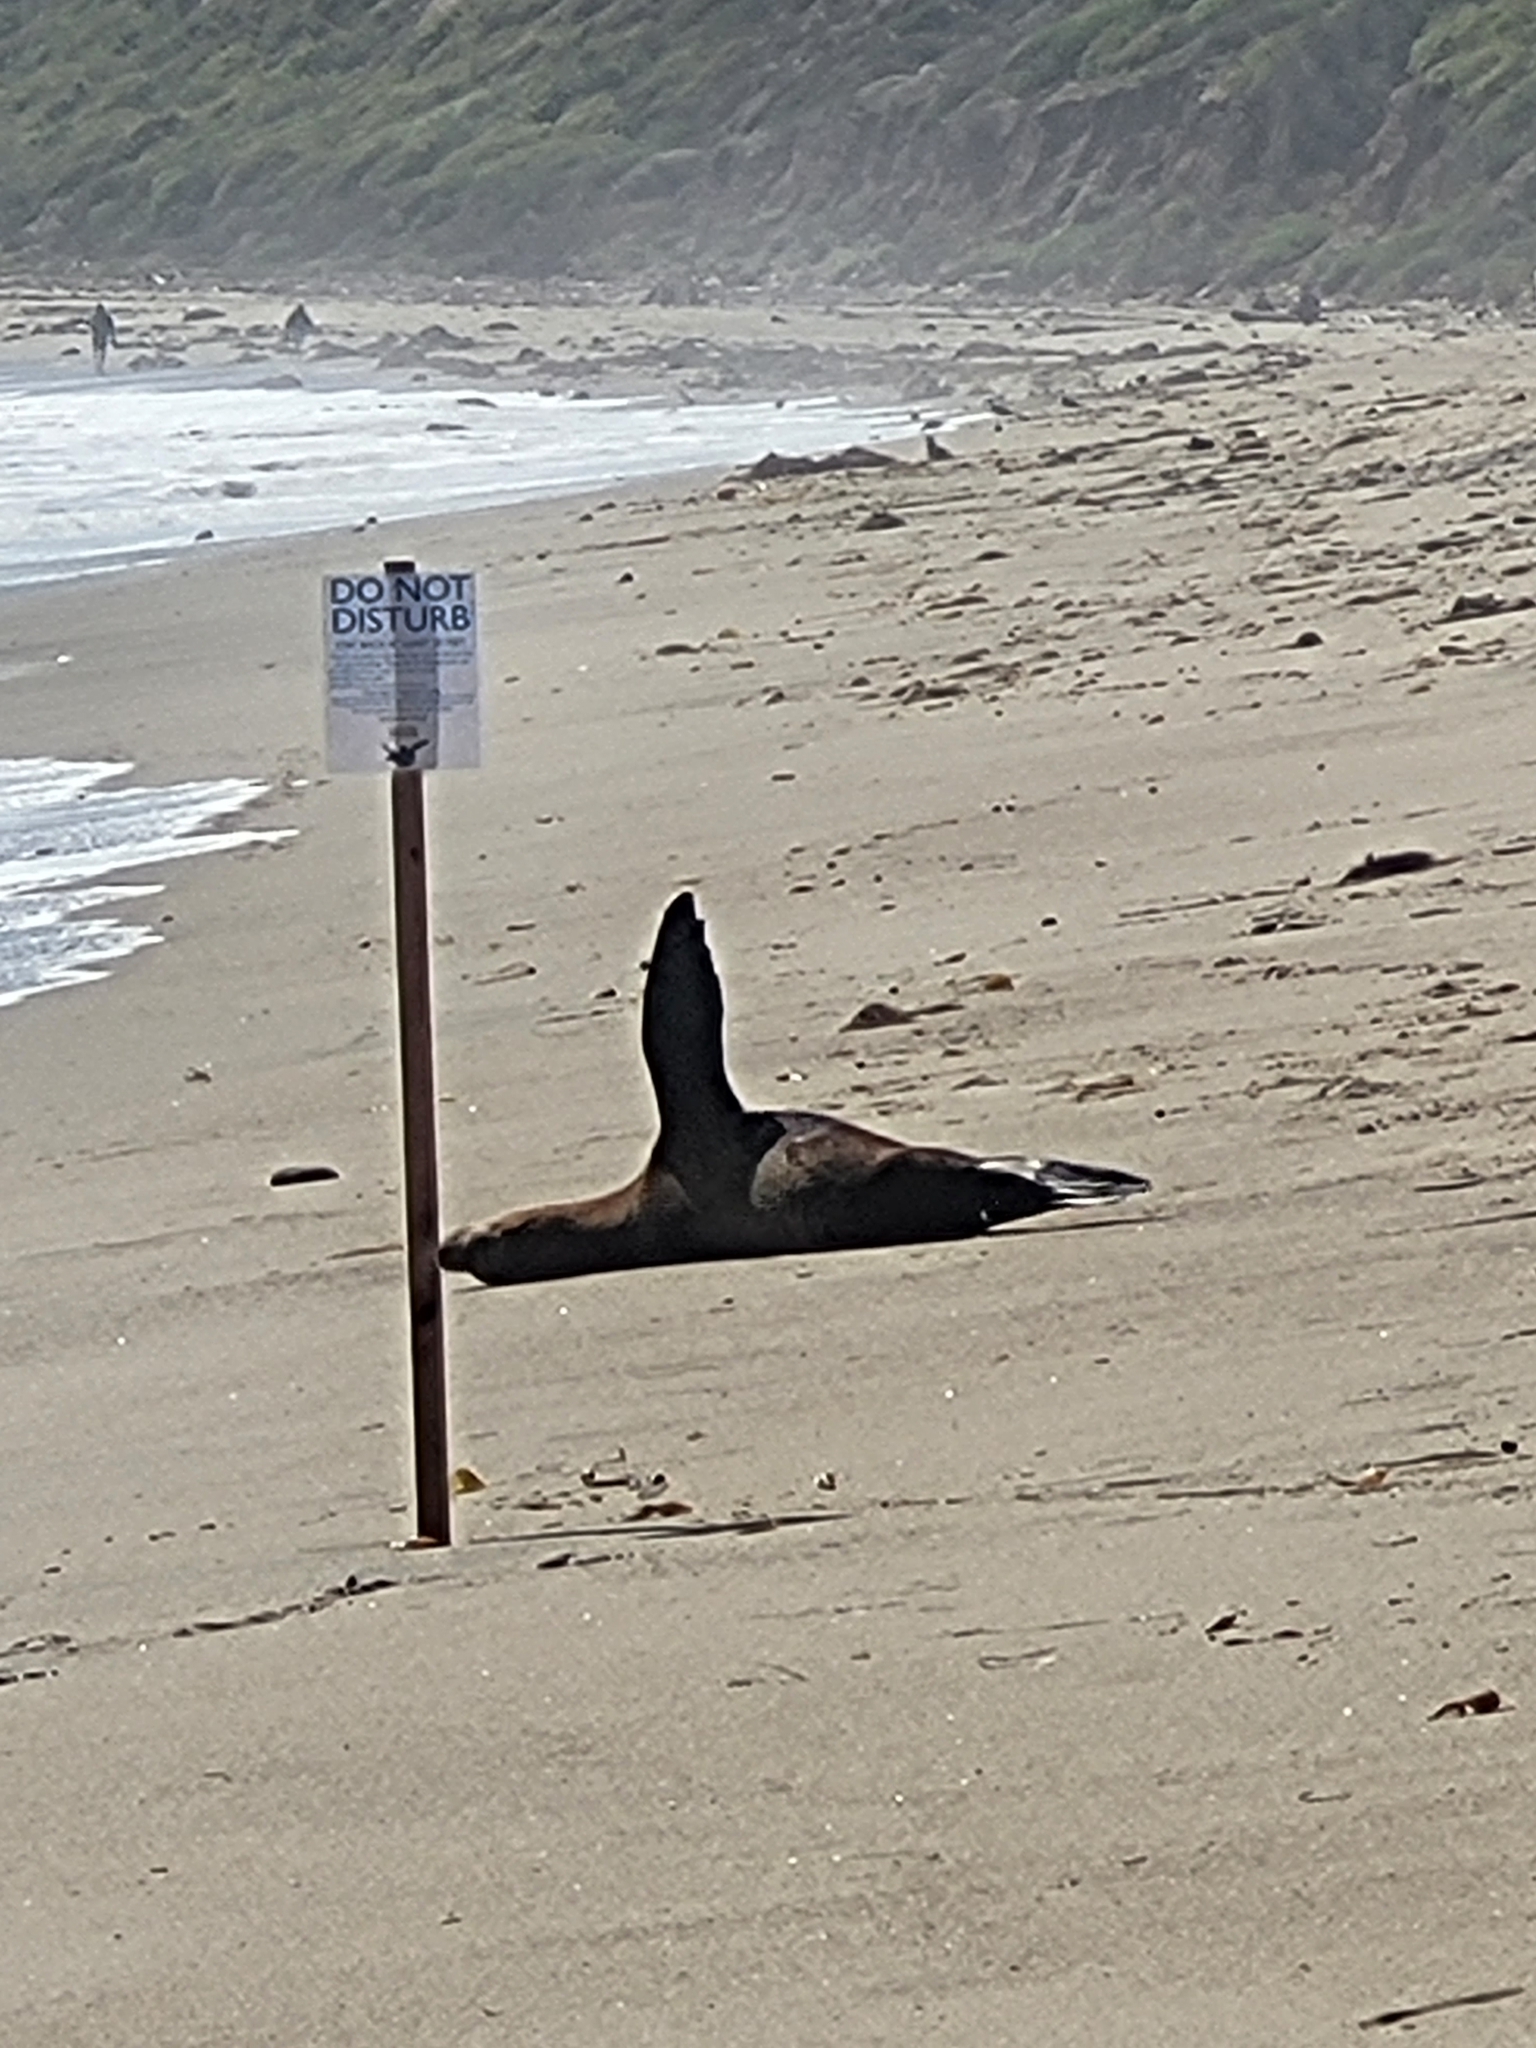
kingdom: Animalia
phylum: Chordata
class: Mammalia
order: Carnivora
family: Otariidae
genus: Zalophus
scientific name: Zalophus californianus
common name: California sea lion
